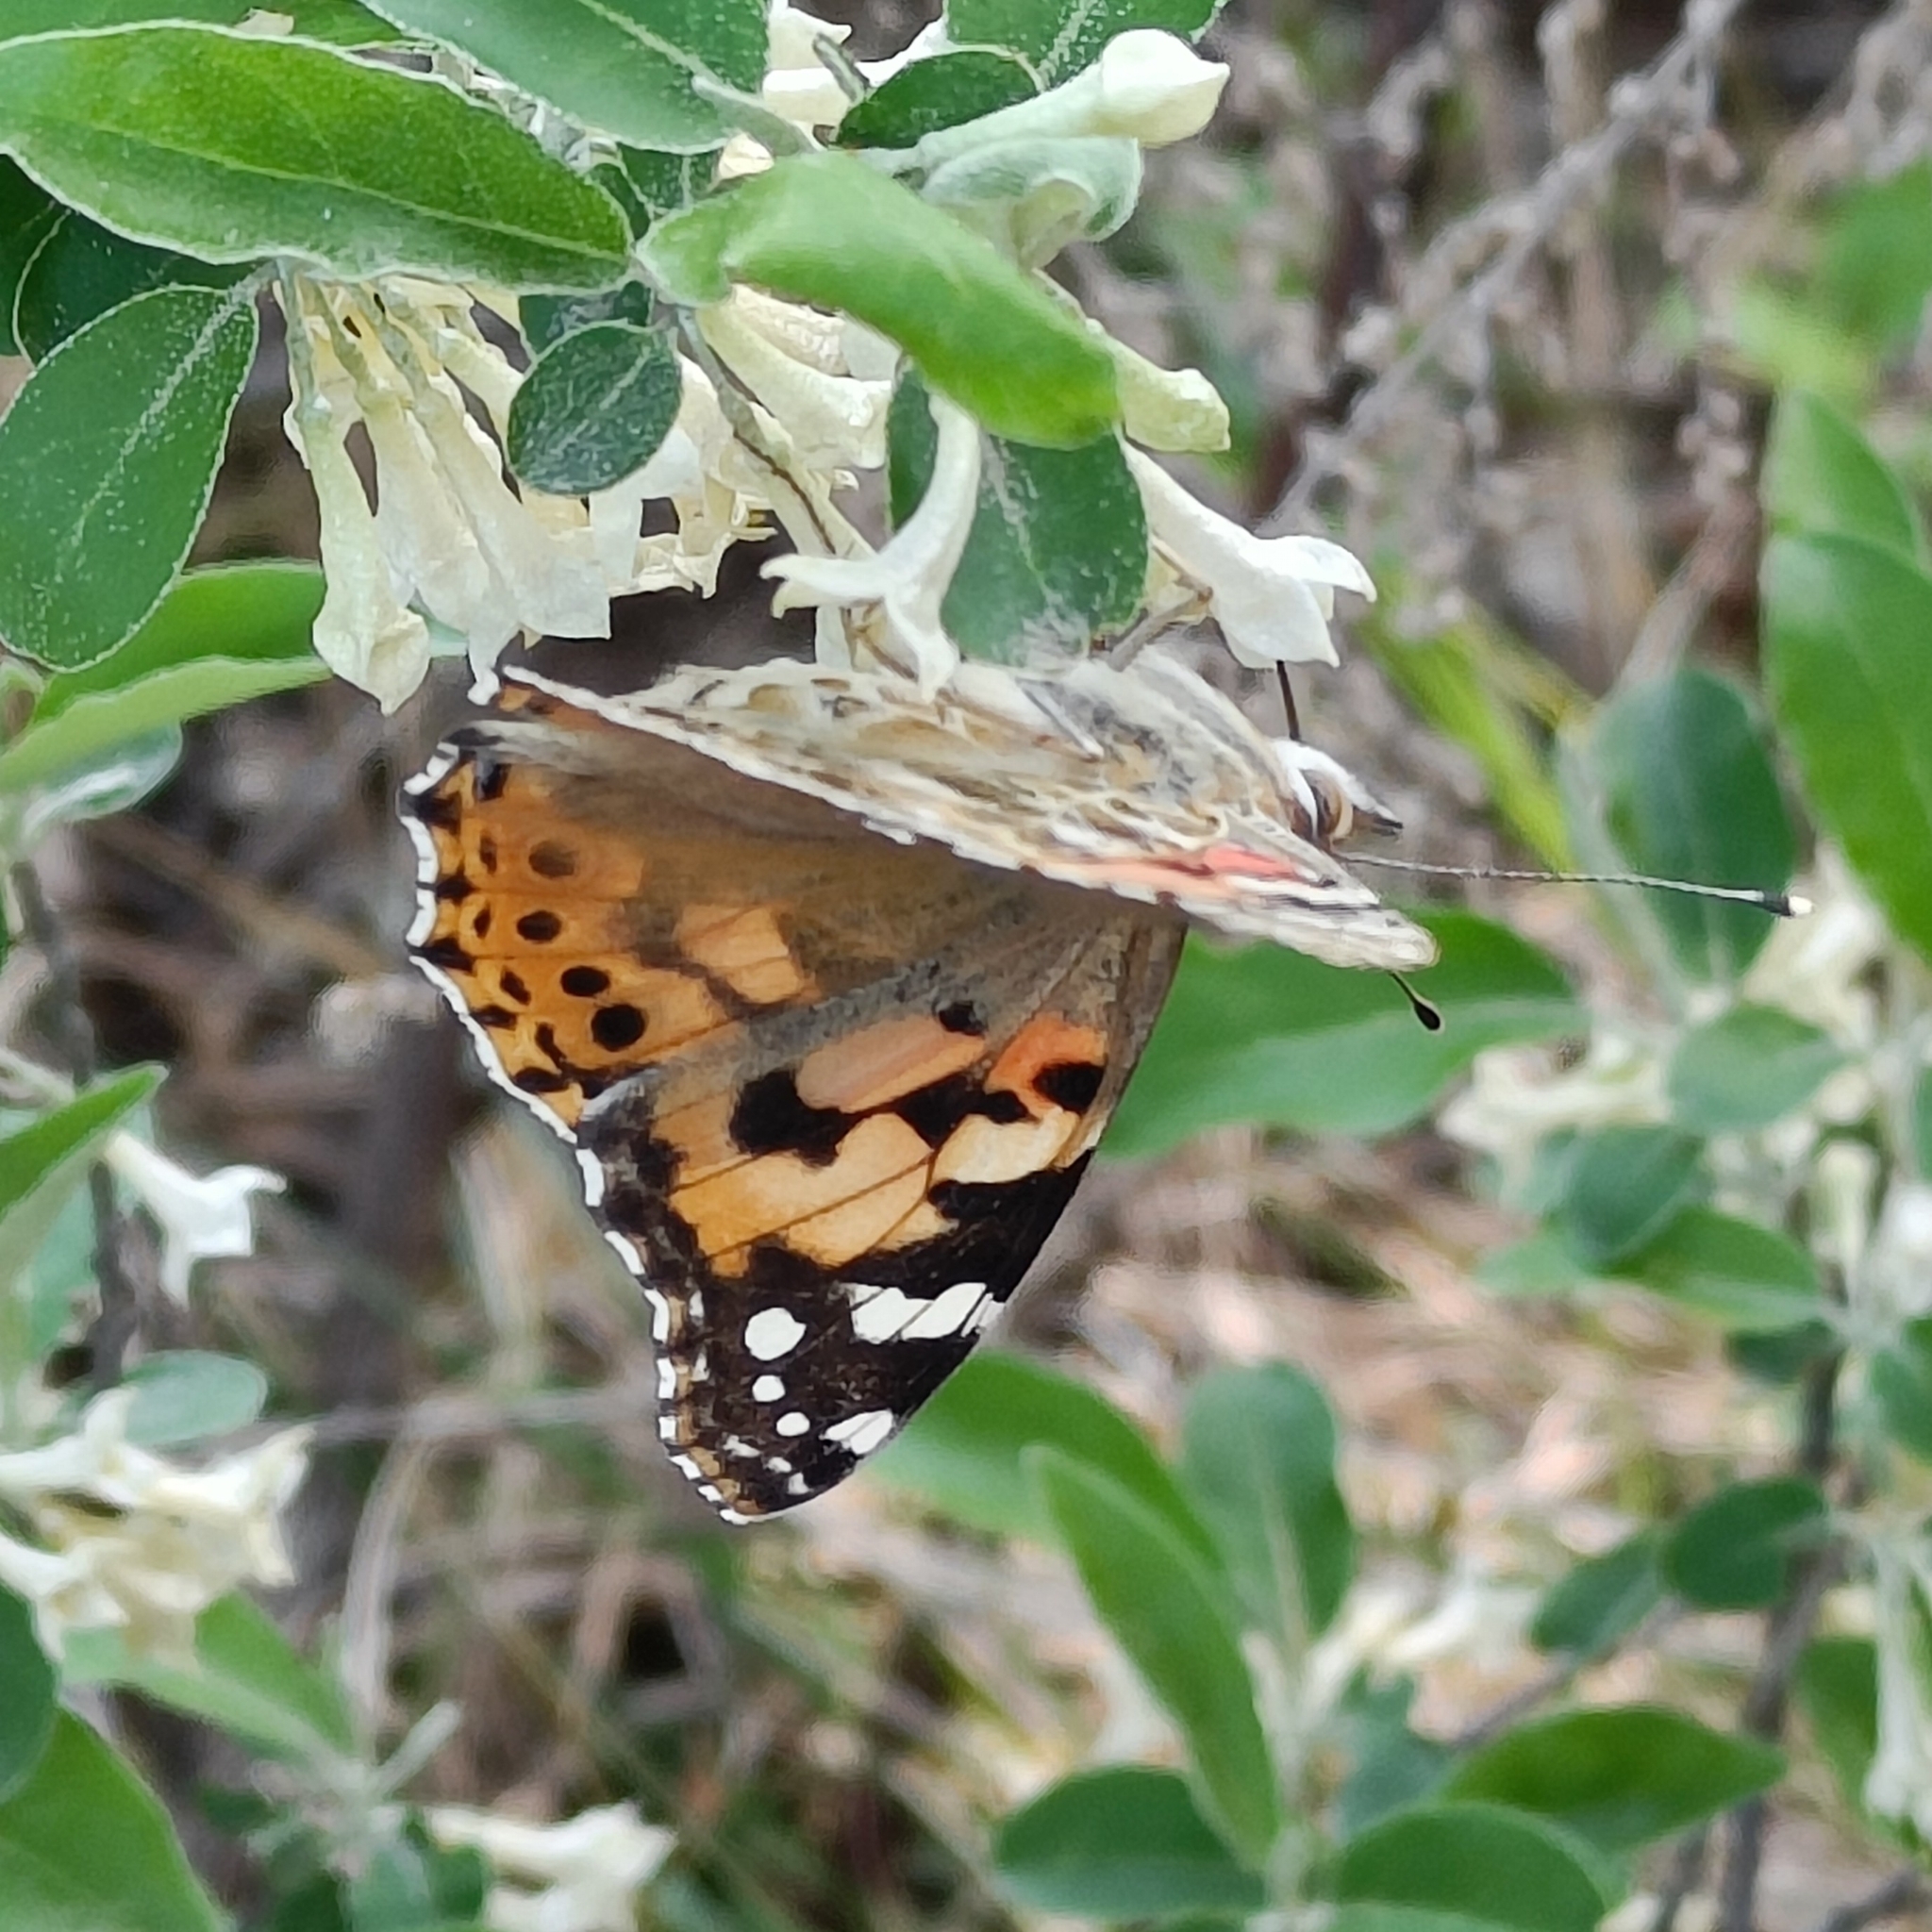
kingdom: Animalia
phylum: Arthropoda
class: Insecta
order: Lepidoptera
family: Nymphalidae
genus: Vanessa
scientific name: Vanessa cardui
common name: Painted lady
